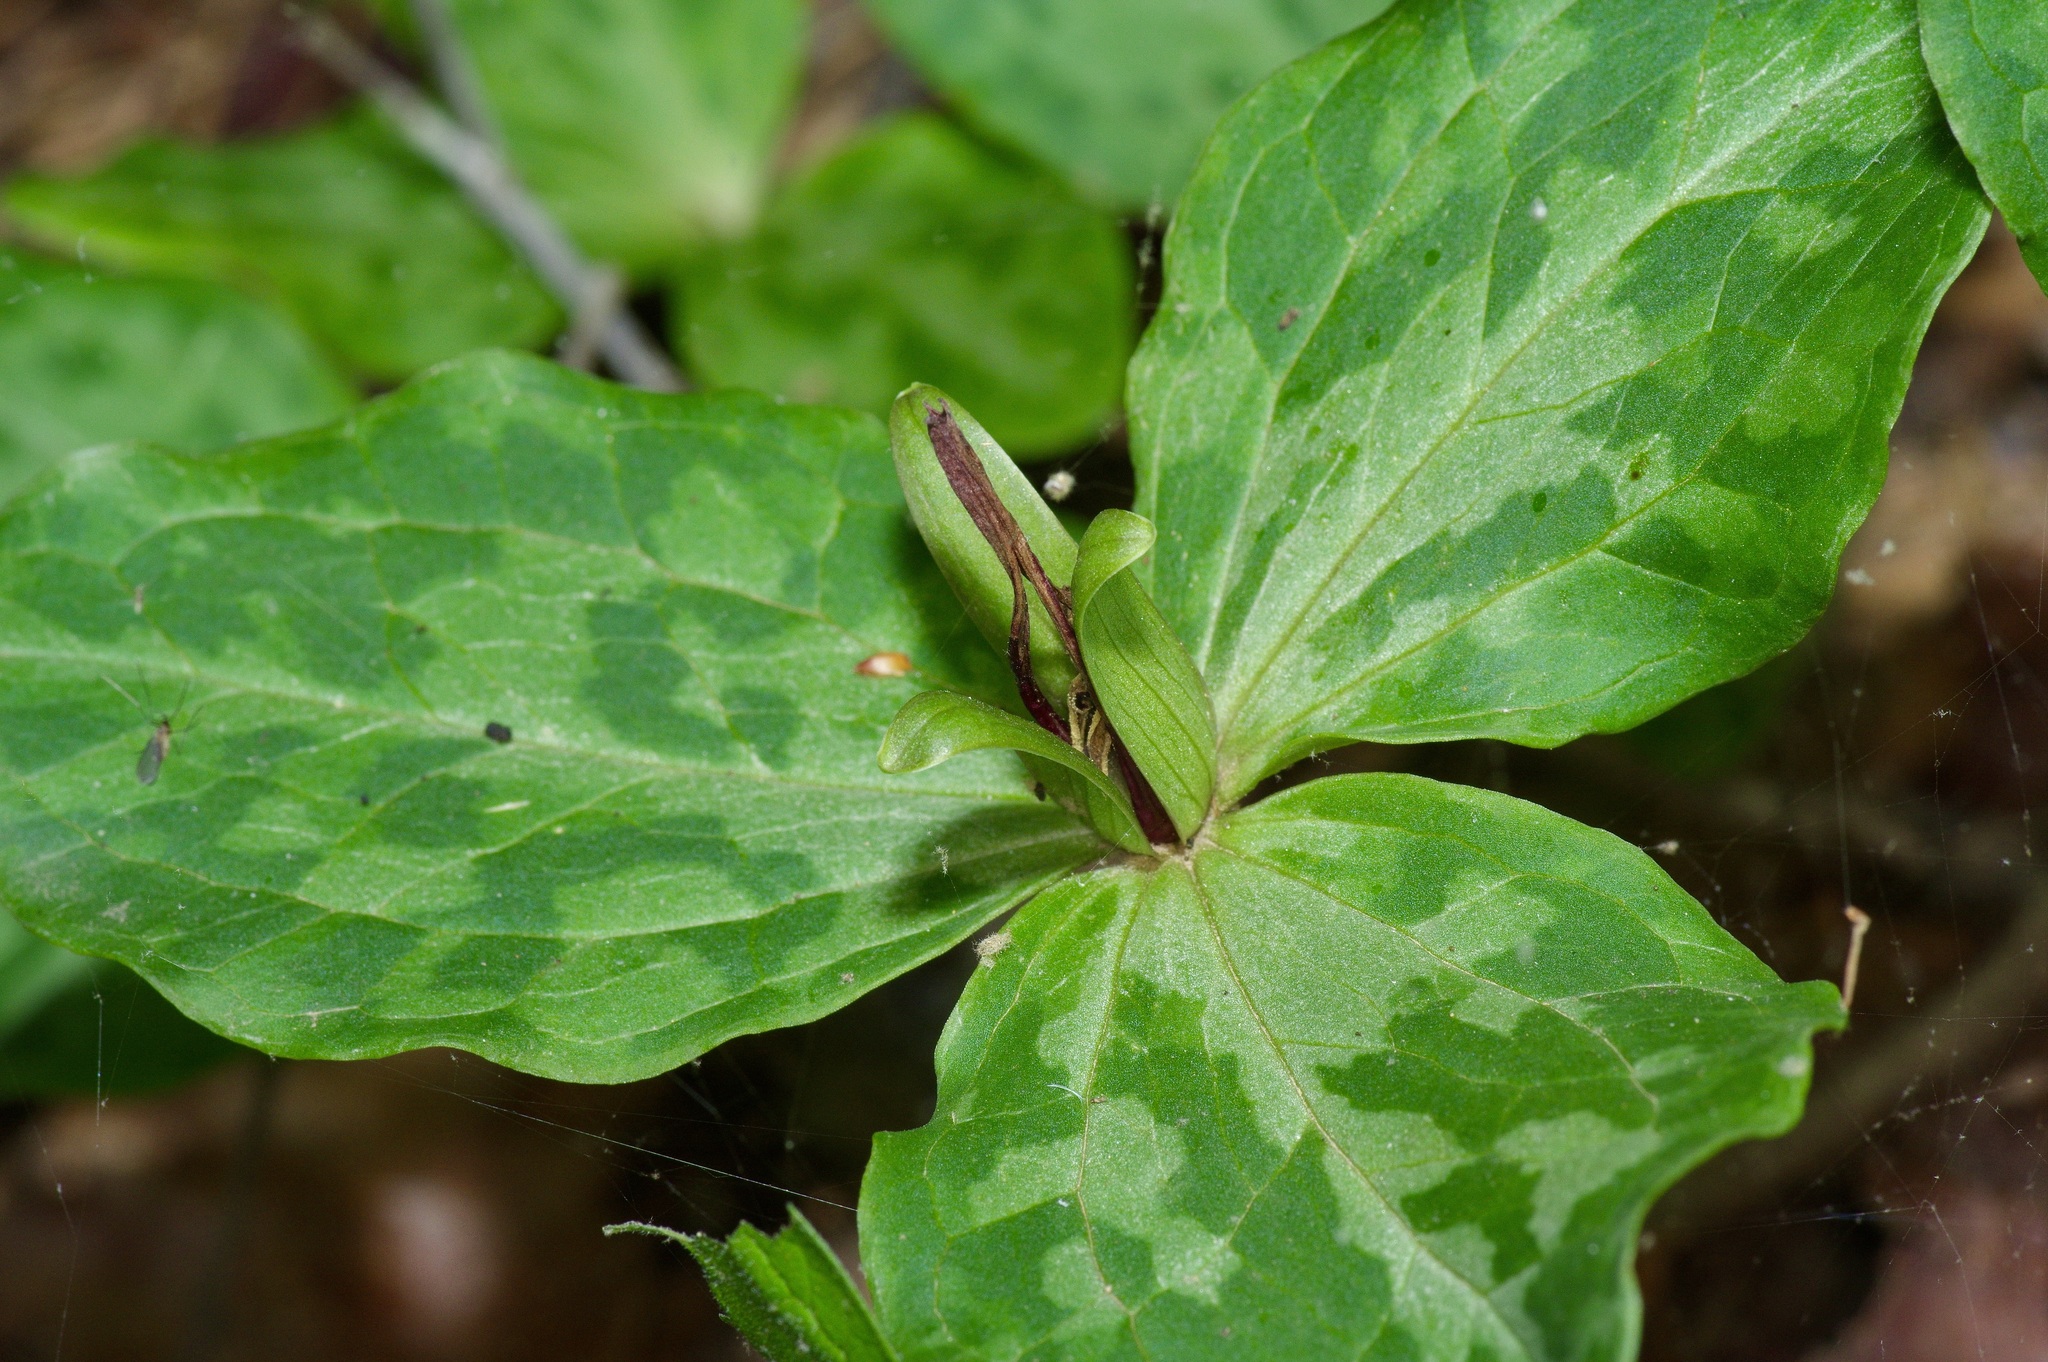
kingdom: Plantae
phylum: Tracheophyta
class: Liliopsida
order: Liliales
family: Melanthiaceae
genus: Trillium
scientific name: Trillium gracile
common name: Graceful trillium
